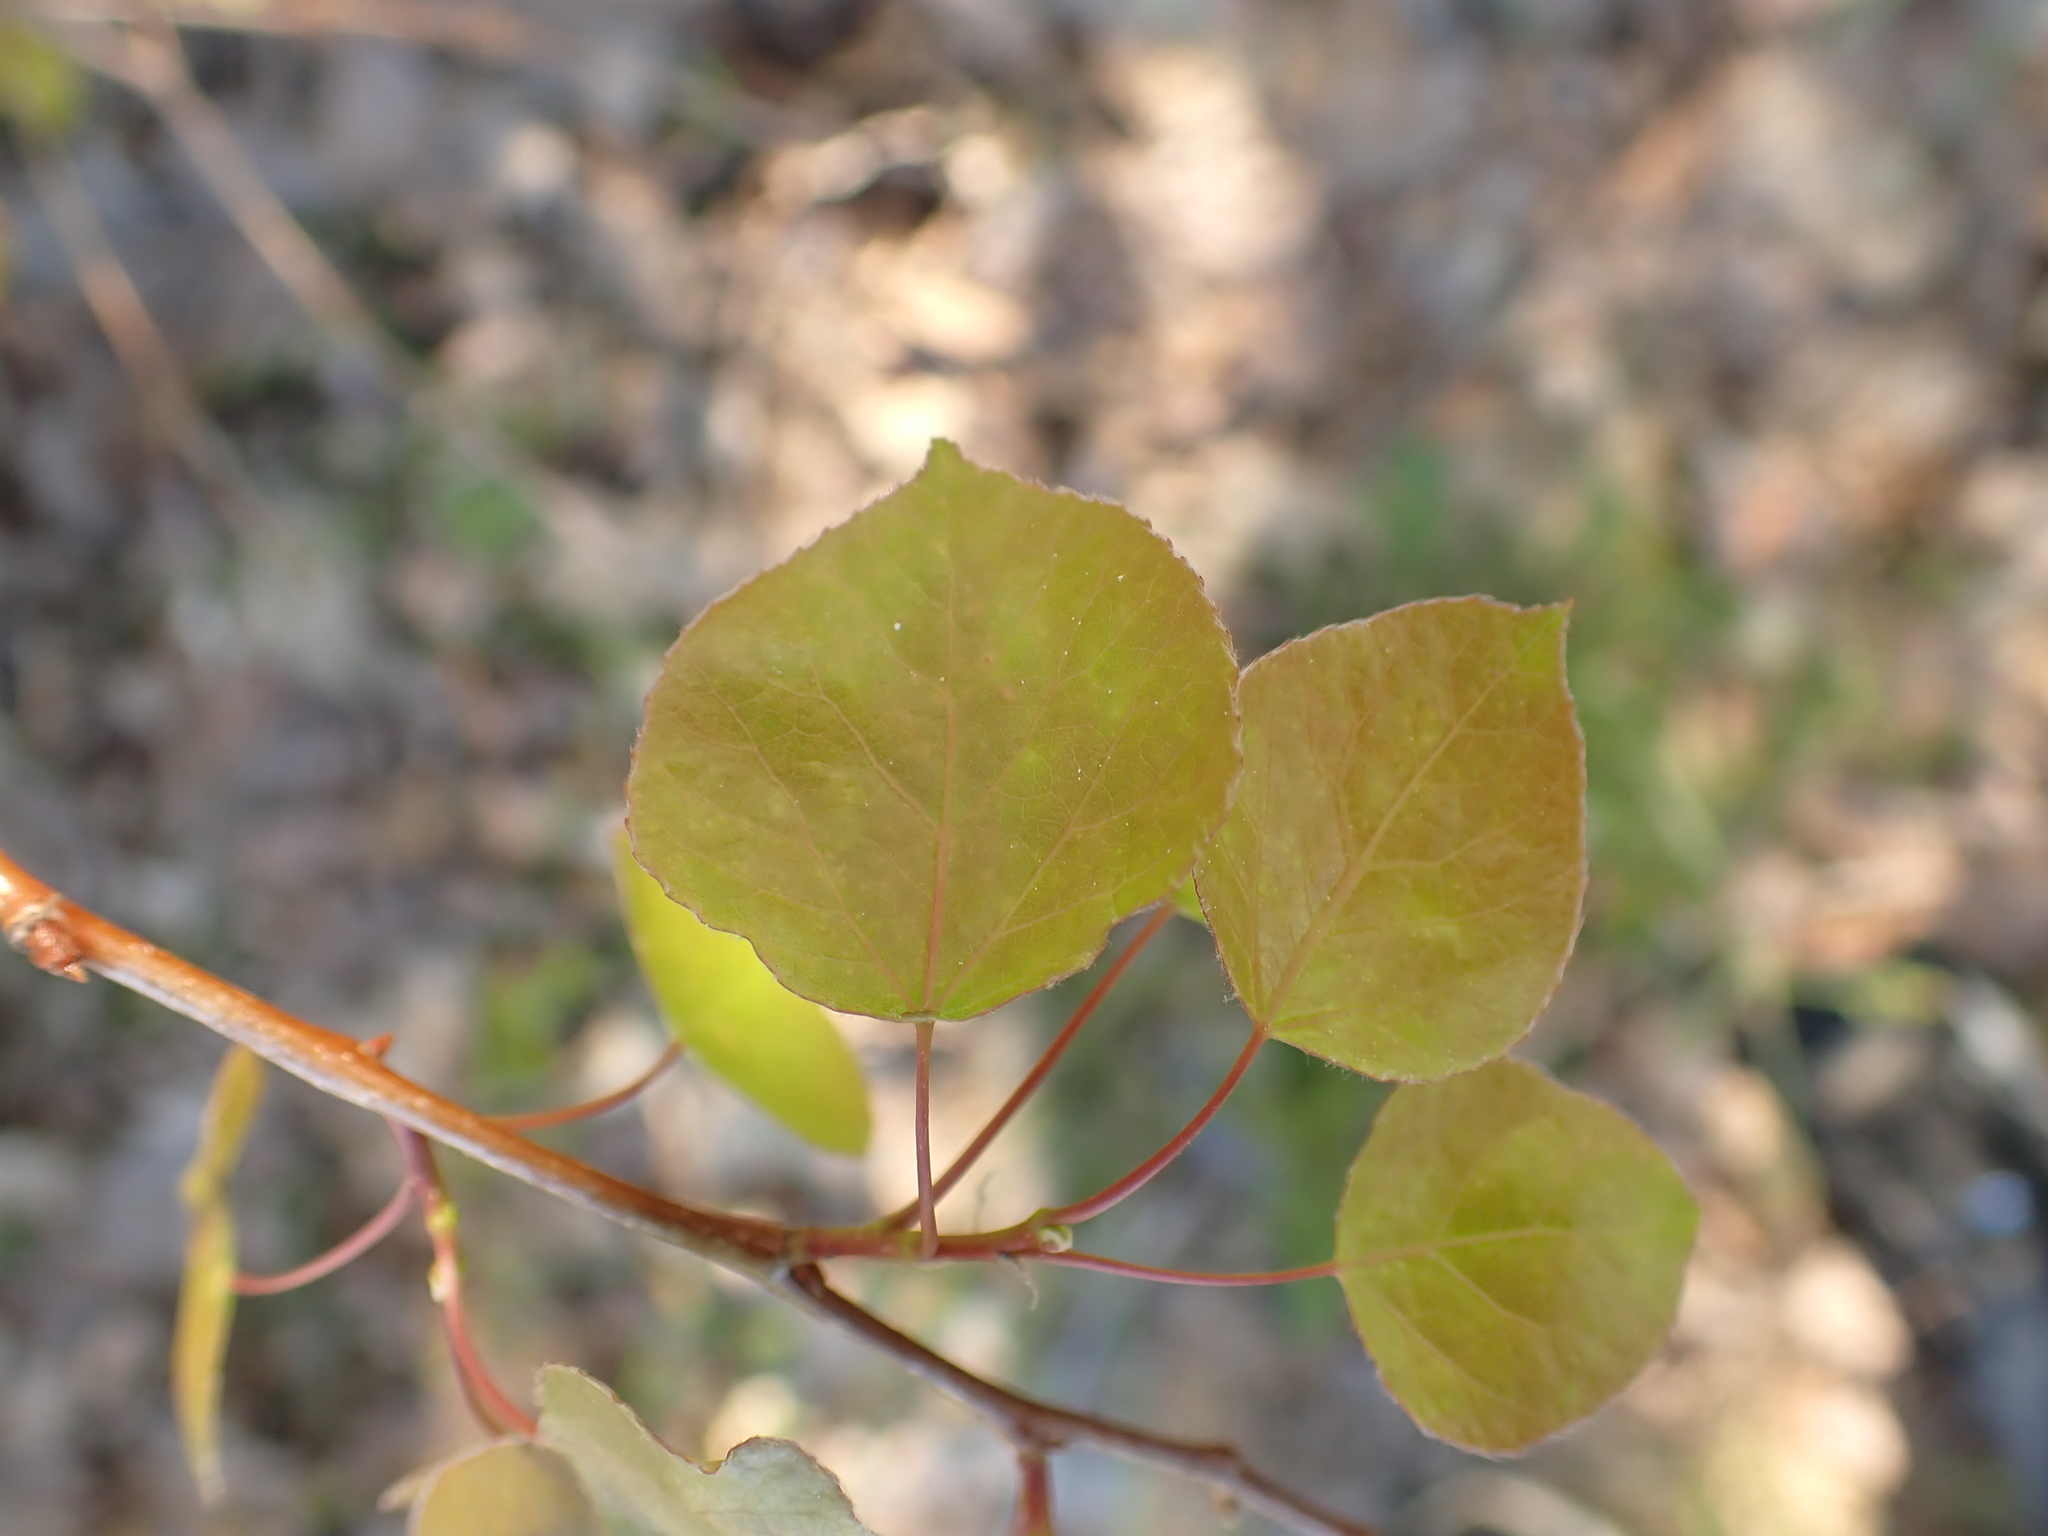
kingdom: Plantae
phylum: Tracheophyta
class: Magnoliopsida
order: Malpighiales
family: Salicaceae
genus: Populus
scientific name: Populus tremuloides
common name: Quaking aspen
